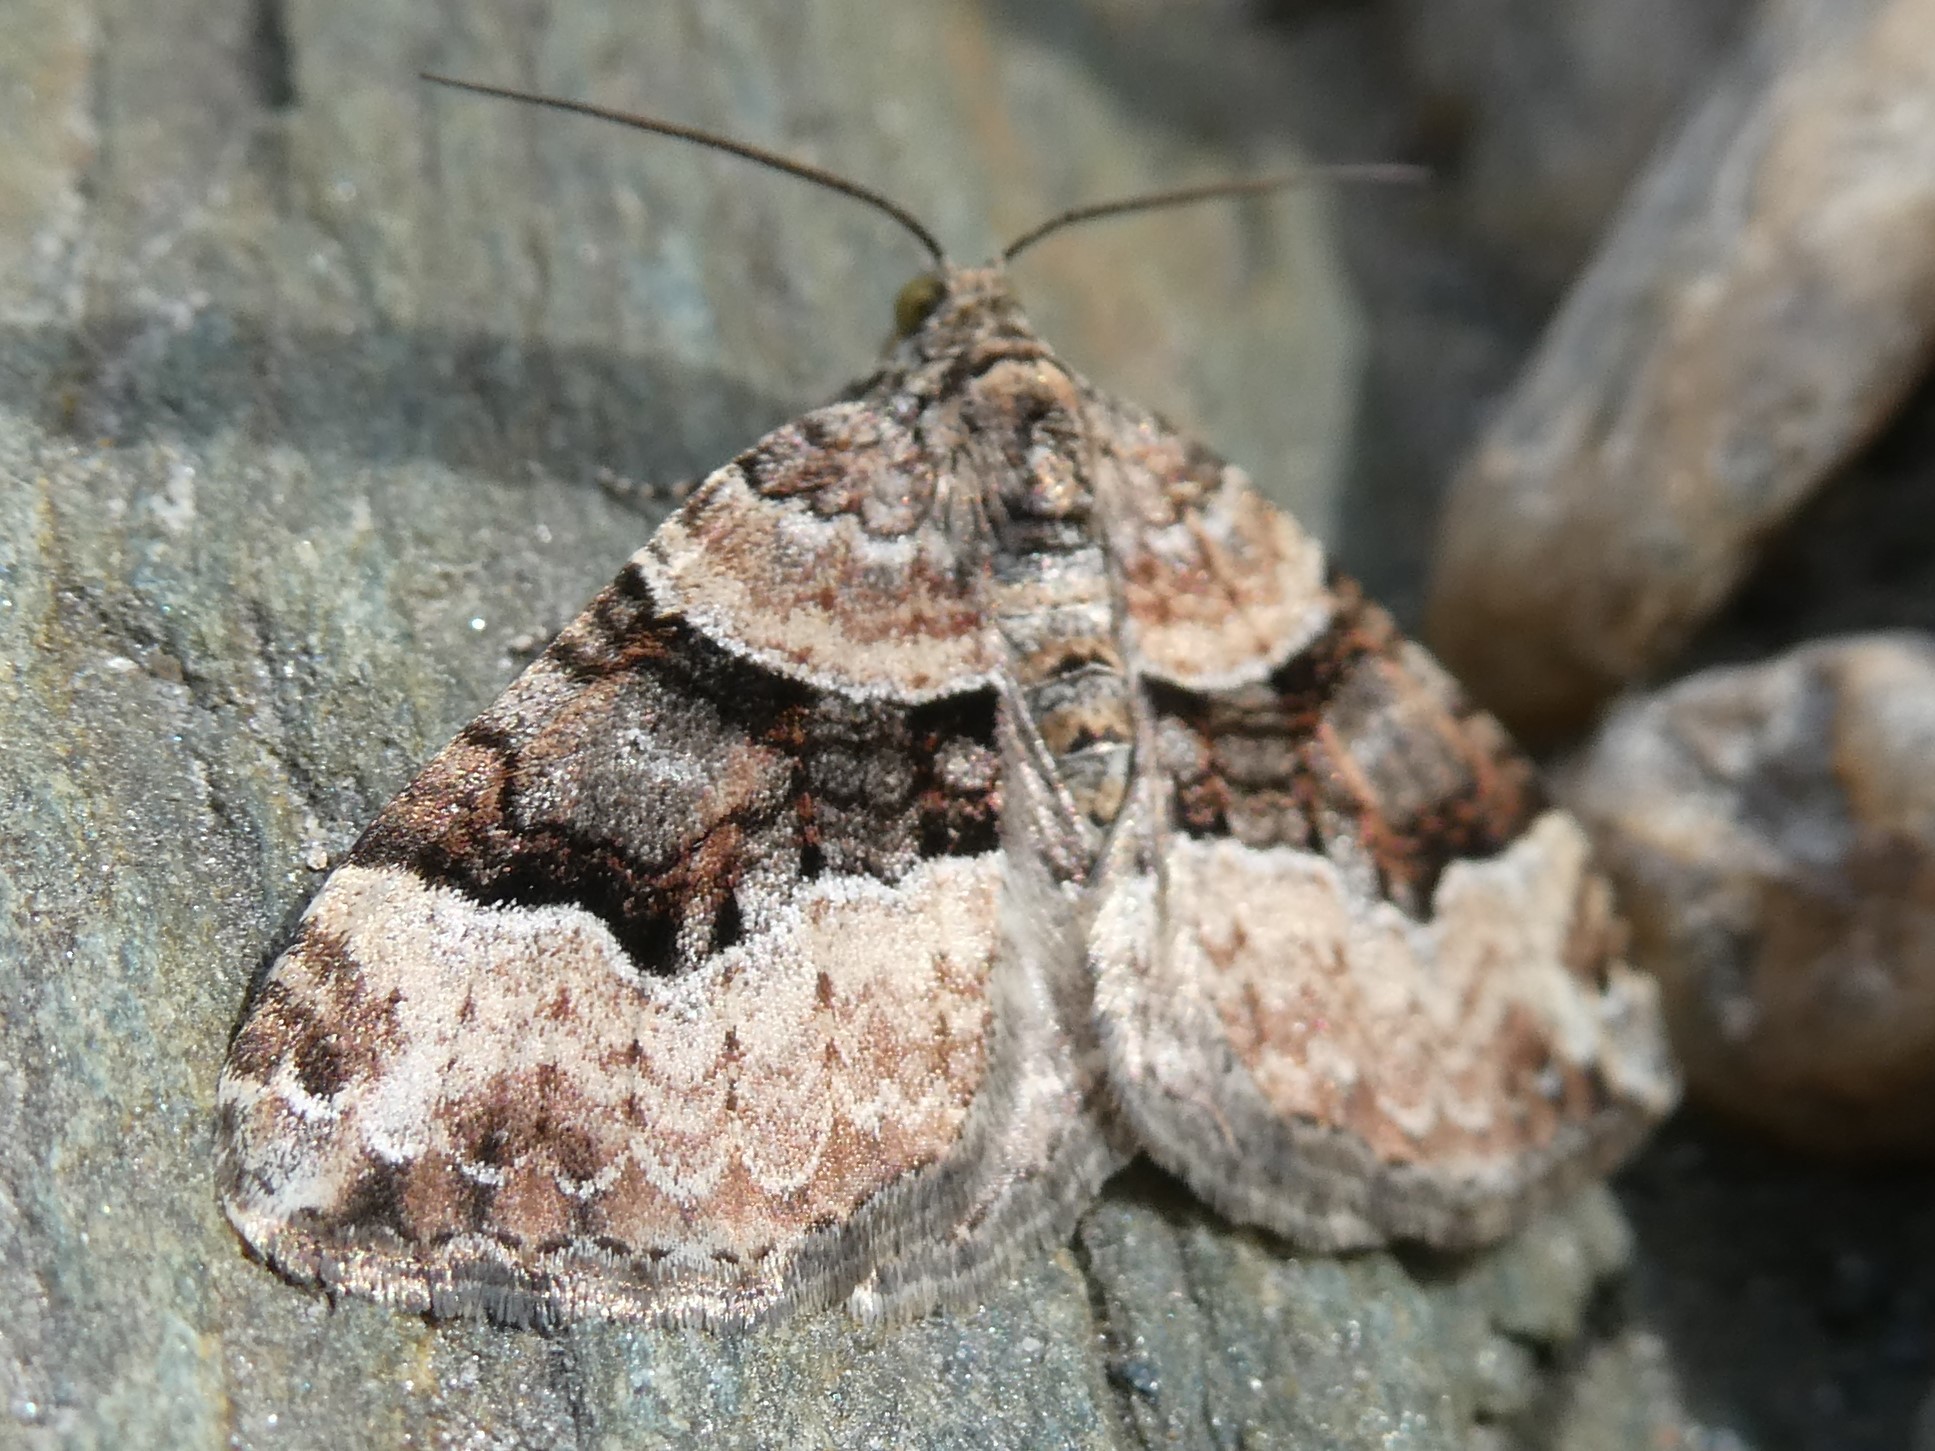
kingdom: Animalia
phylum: Arthropoda
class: Insecta
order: Lepidoptera
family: Geometridae
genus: Xanthorhoe
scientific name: Xanthorhoe lacustrata
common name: Toothed brown carpet
